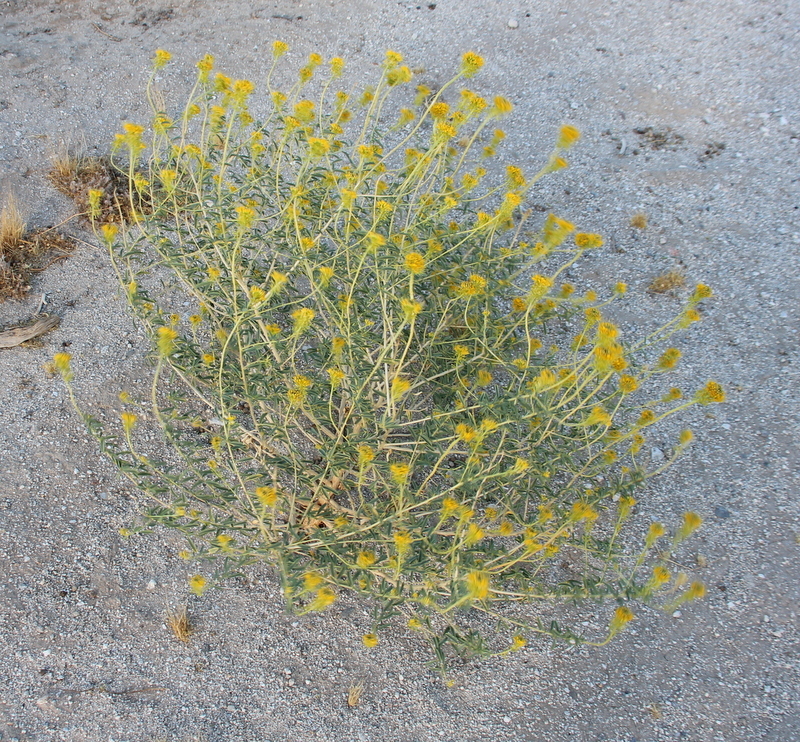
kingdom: Plantae
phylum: Tracheophyta
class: Magnoliopsida
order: Brassicales
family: Cleomaceae
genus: Cleomella
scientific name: Cleomella palmeri
